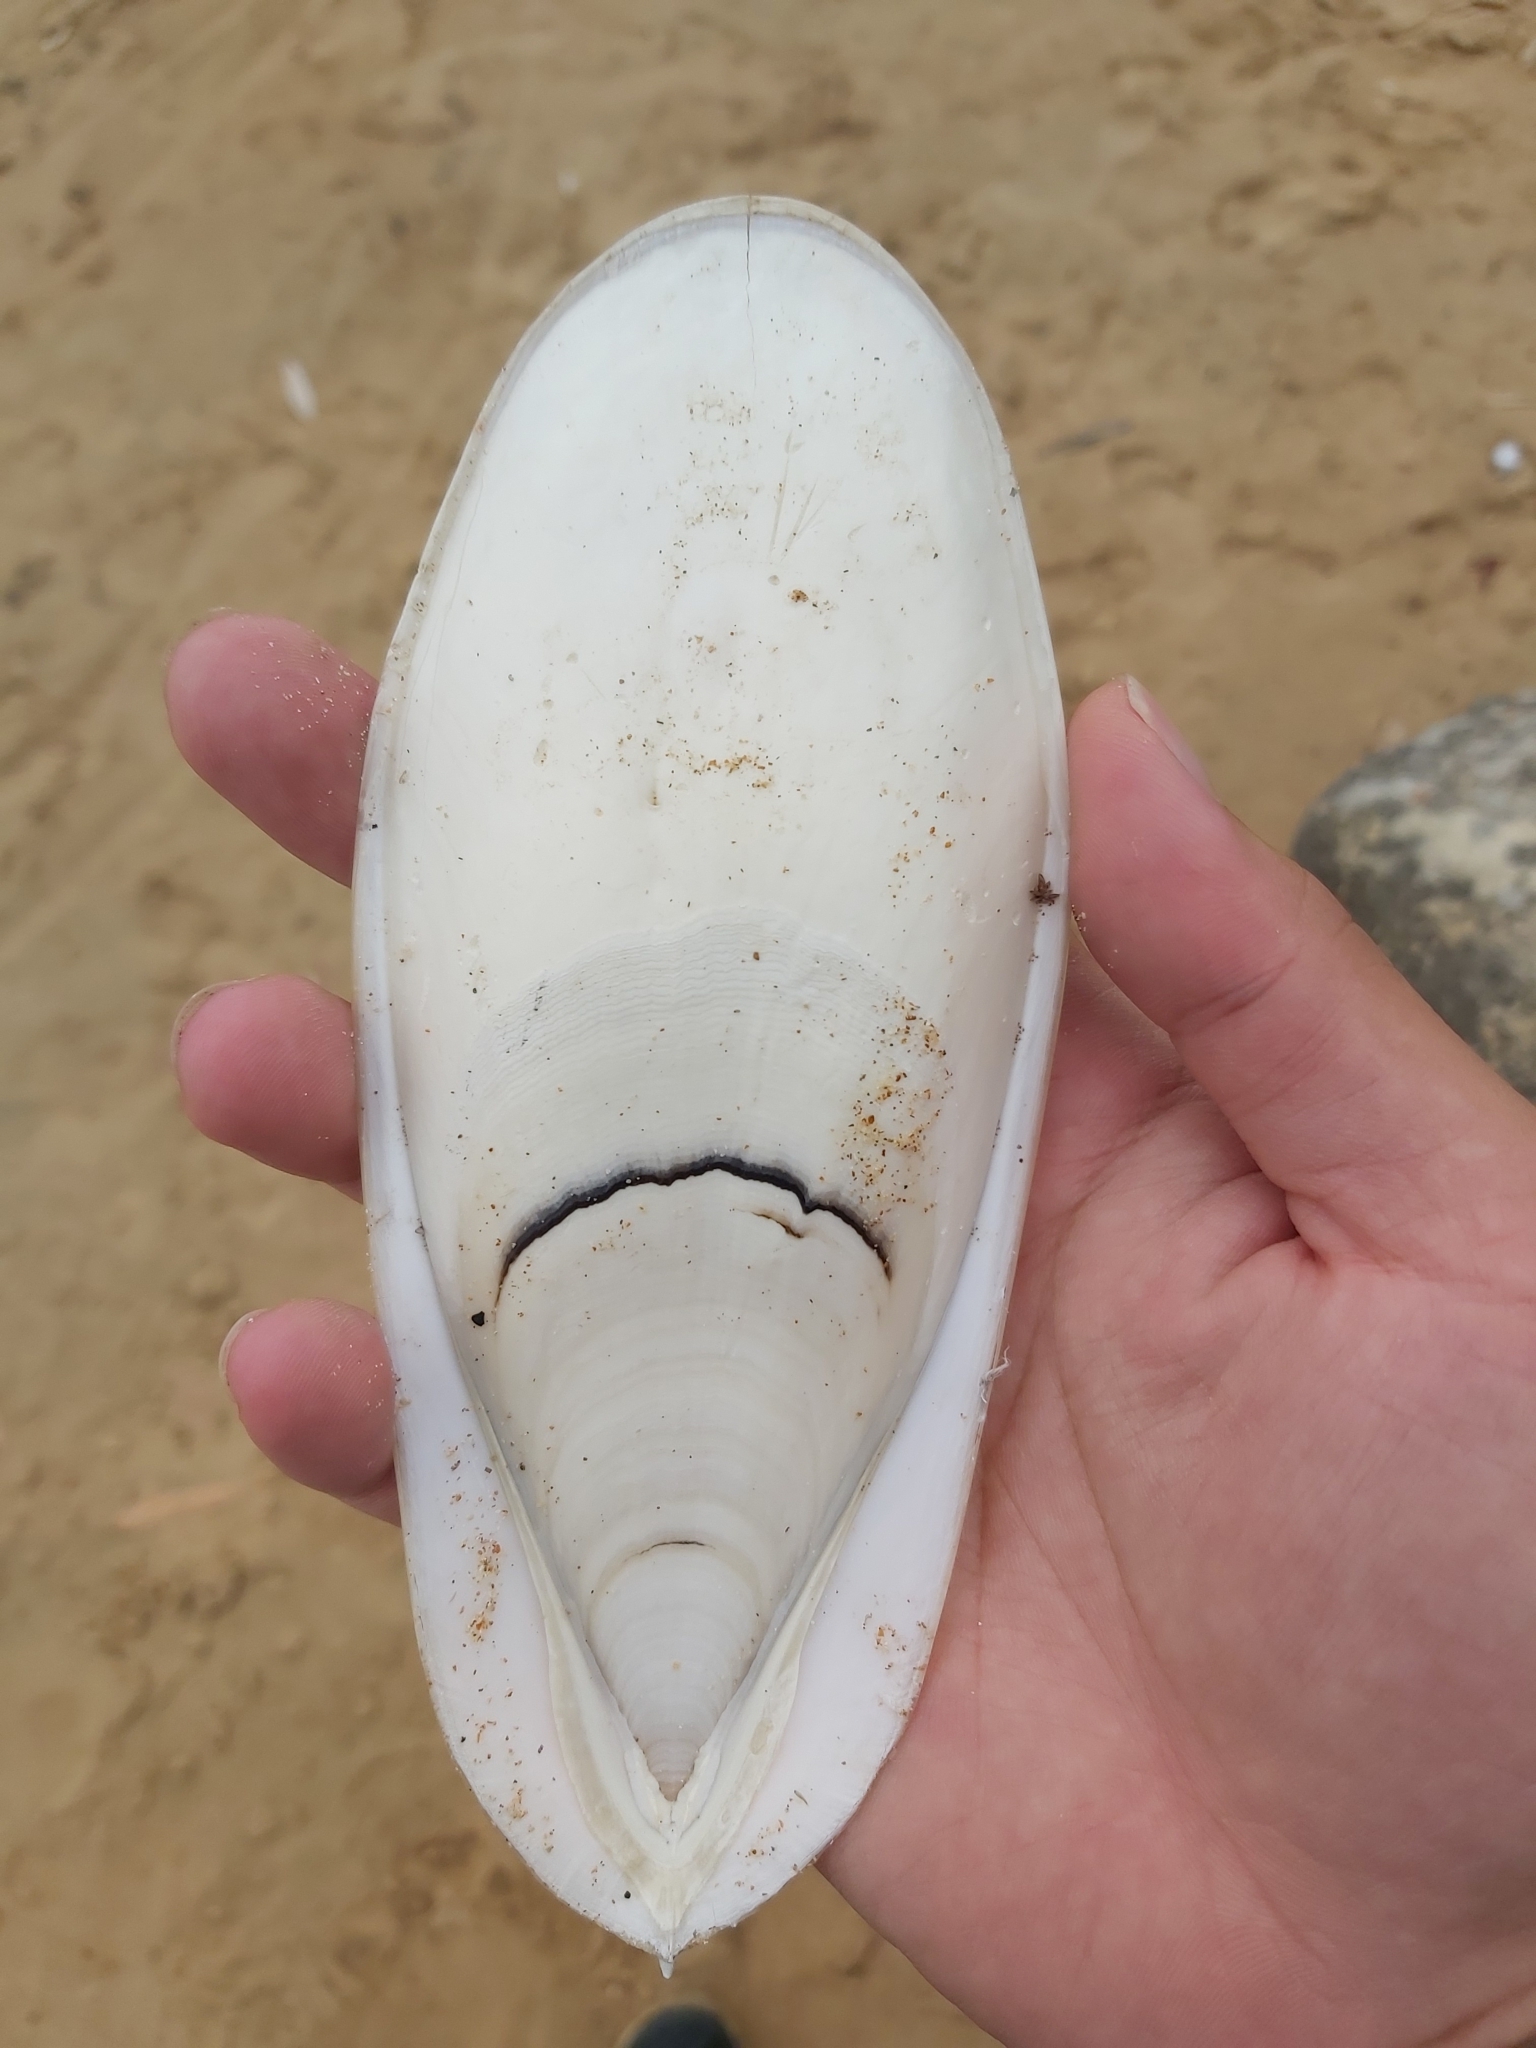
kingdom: Animalia
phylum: Mollusca
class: Cephalopoda
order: Sepiida
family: Sepiidae
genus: Ascarosepion
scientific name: Ascarosepion apama
